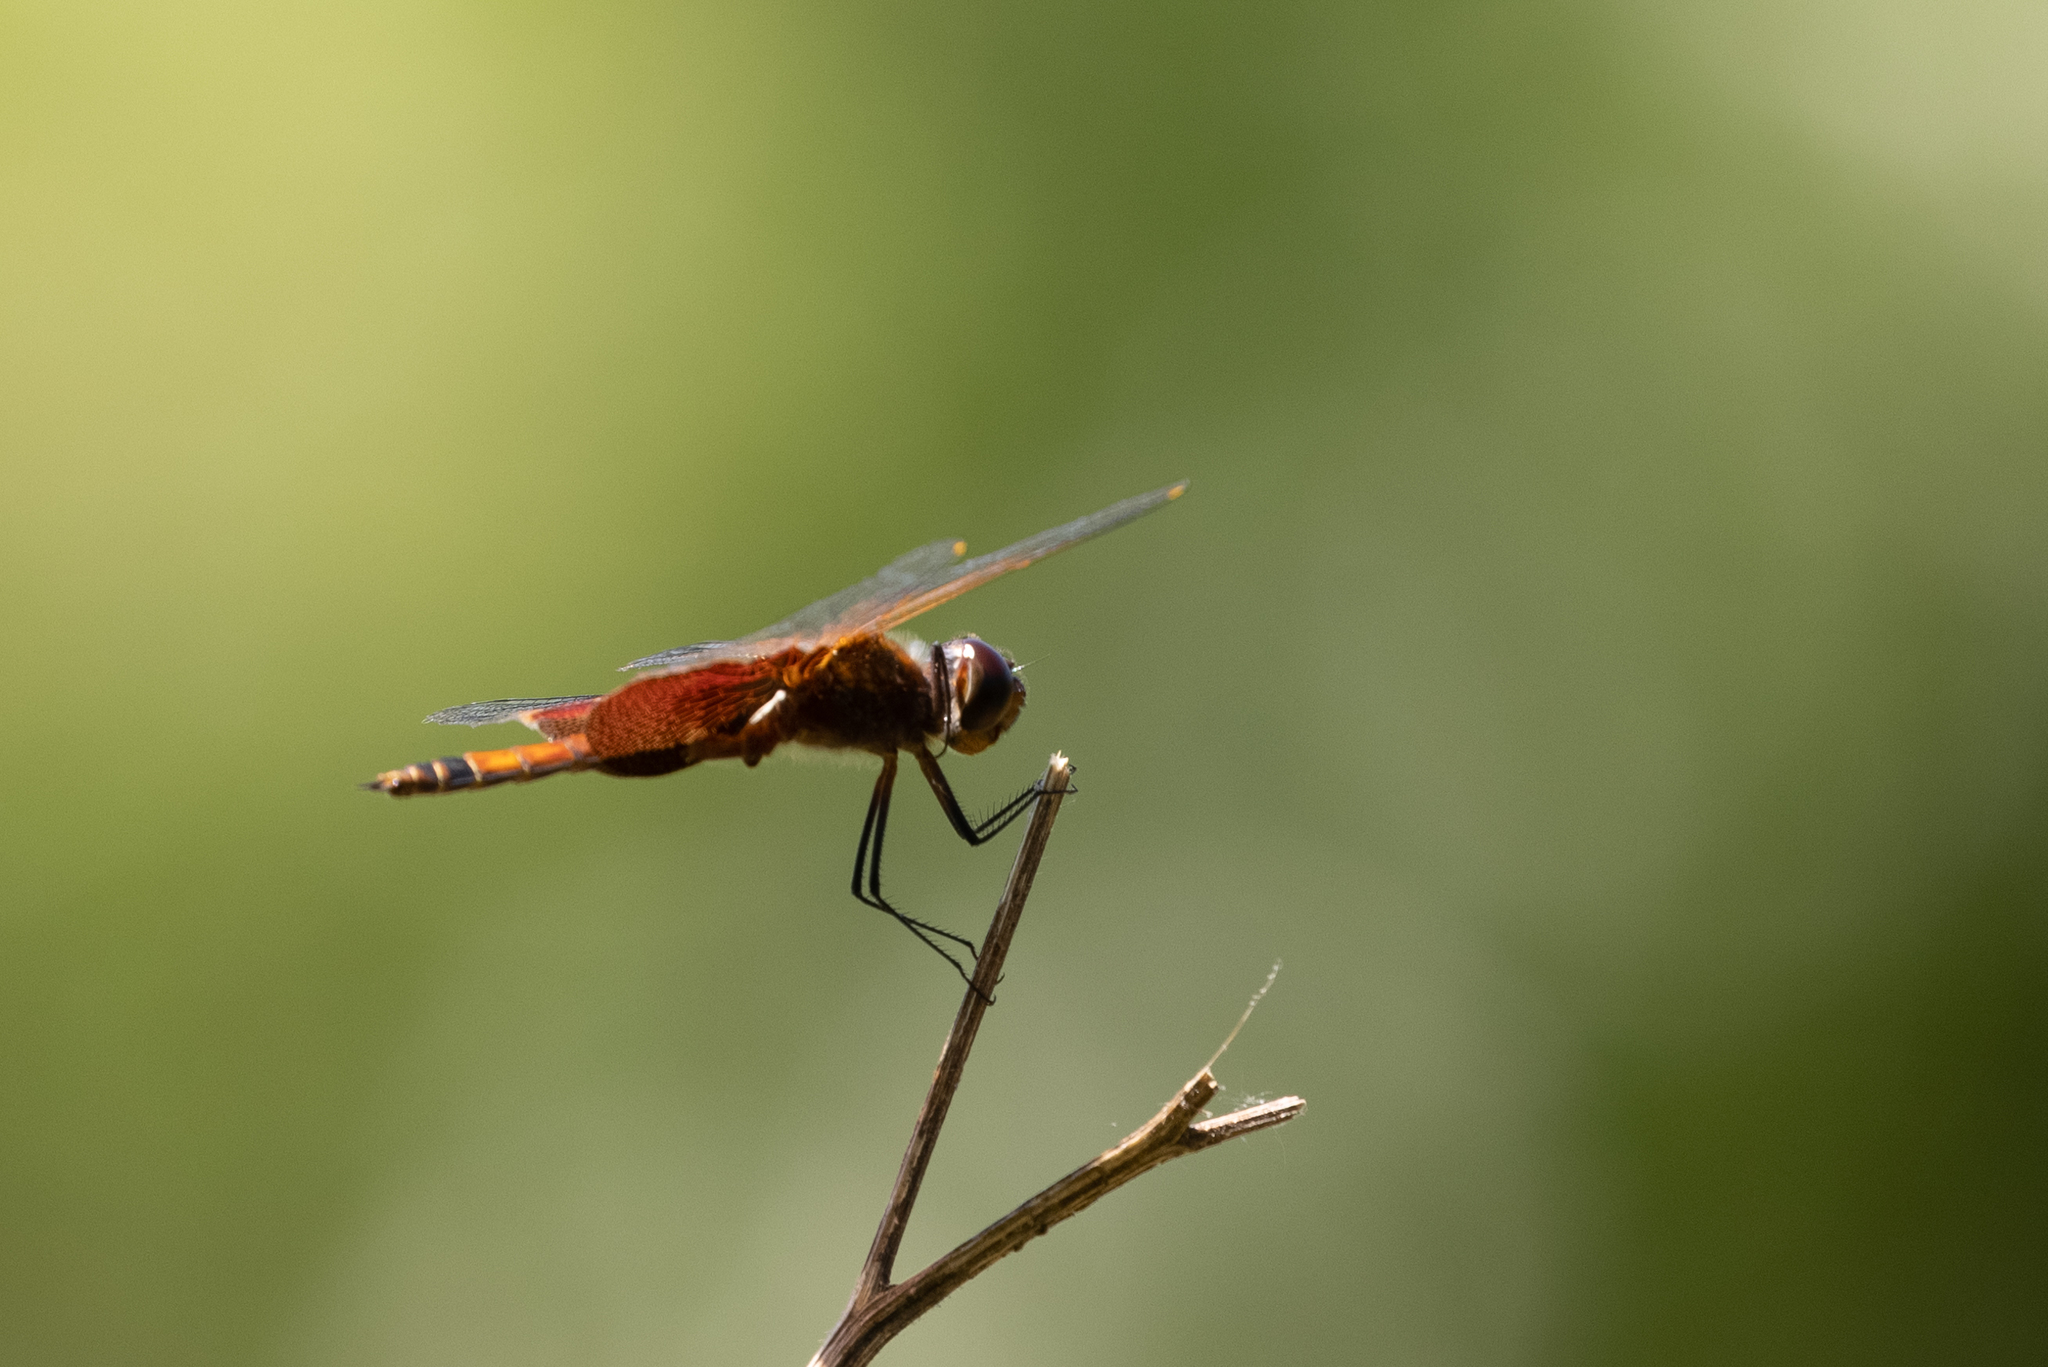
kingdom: Animalia
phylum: Arthropoda
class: Insecta
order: Odonata
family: Libellulidae
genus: Tramea
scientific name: Tramea carolina
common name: Carolina saddlebags
